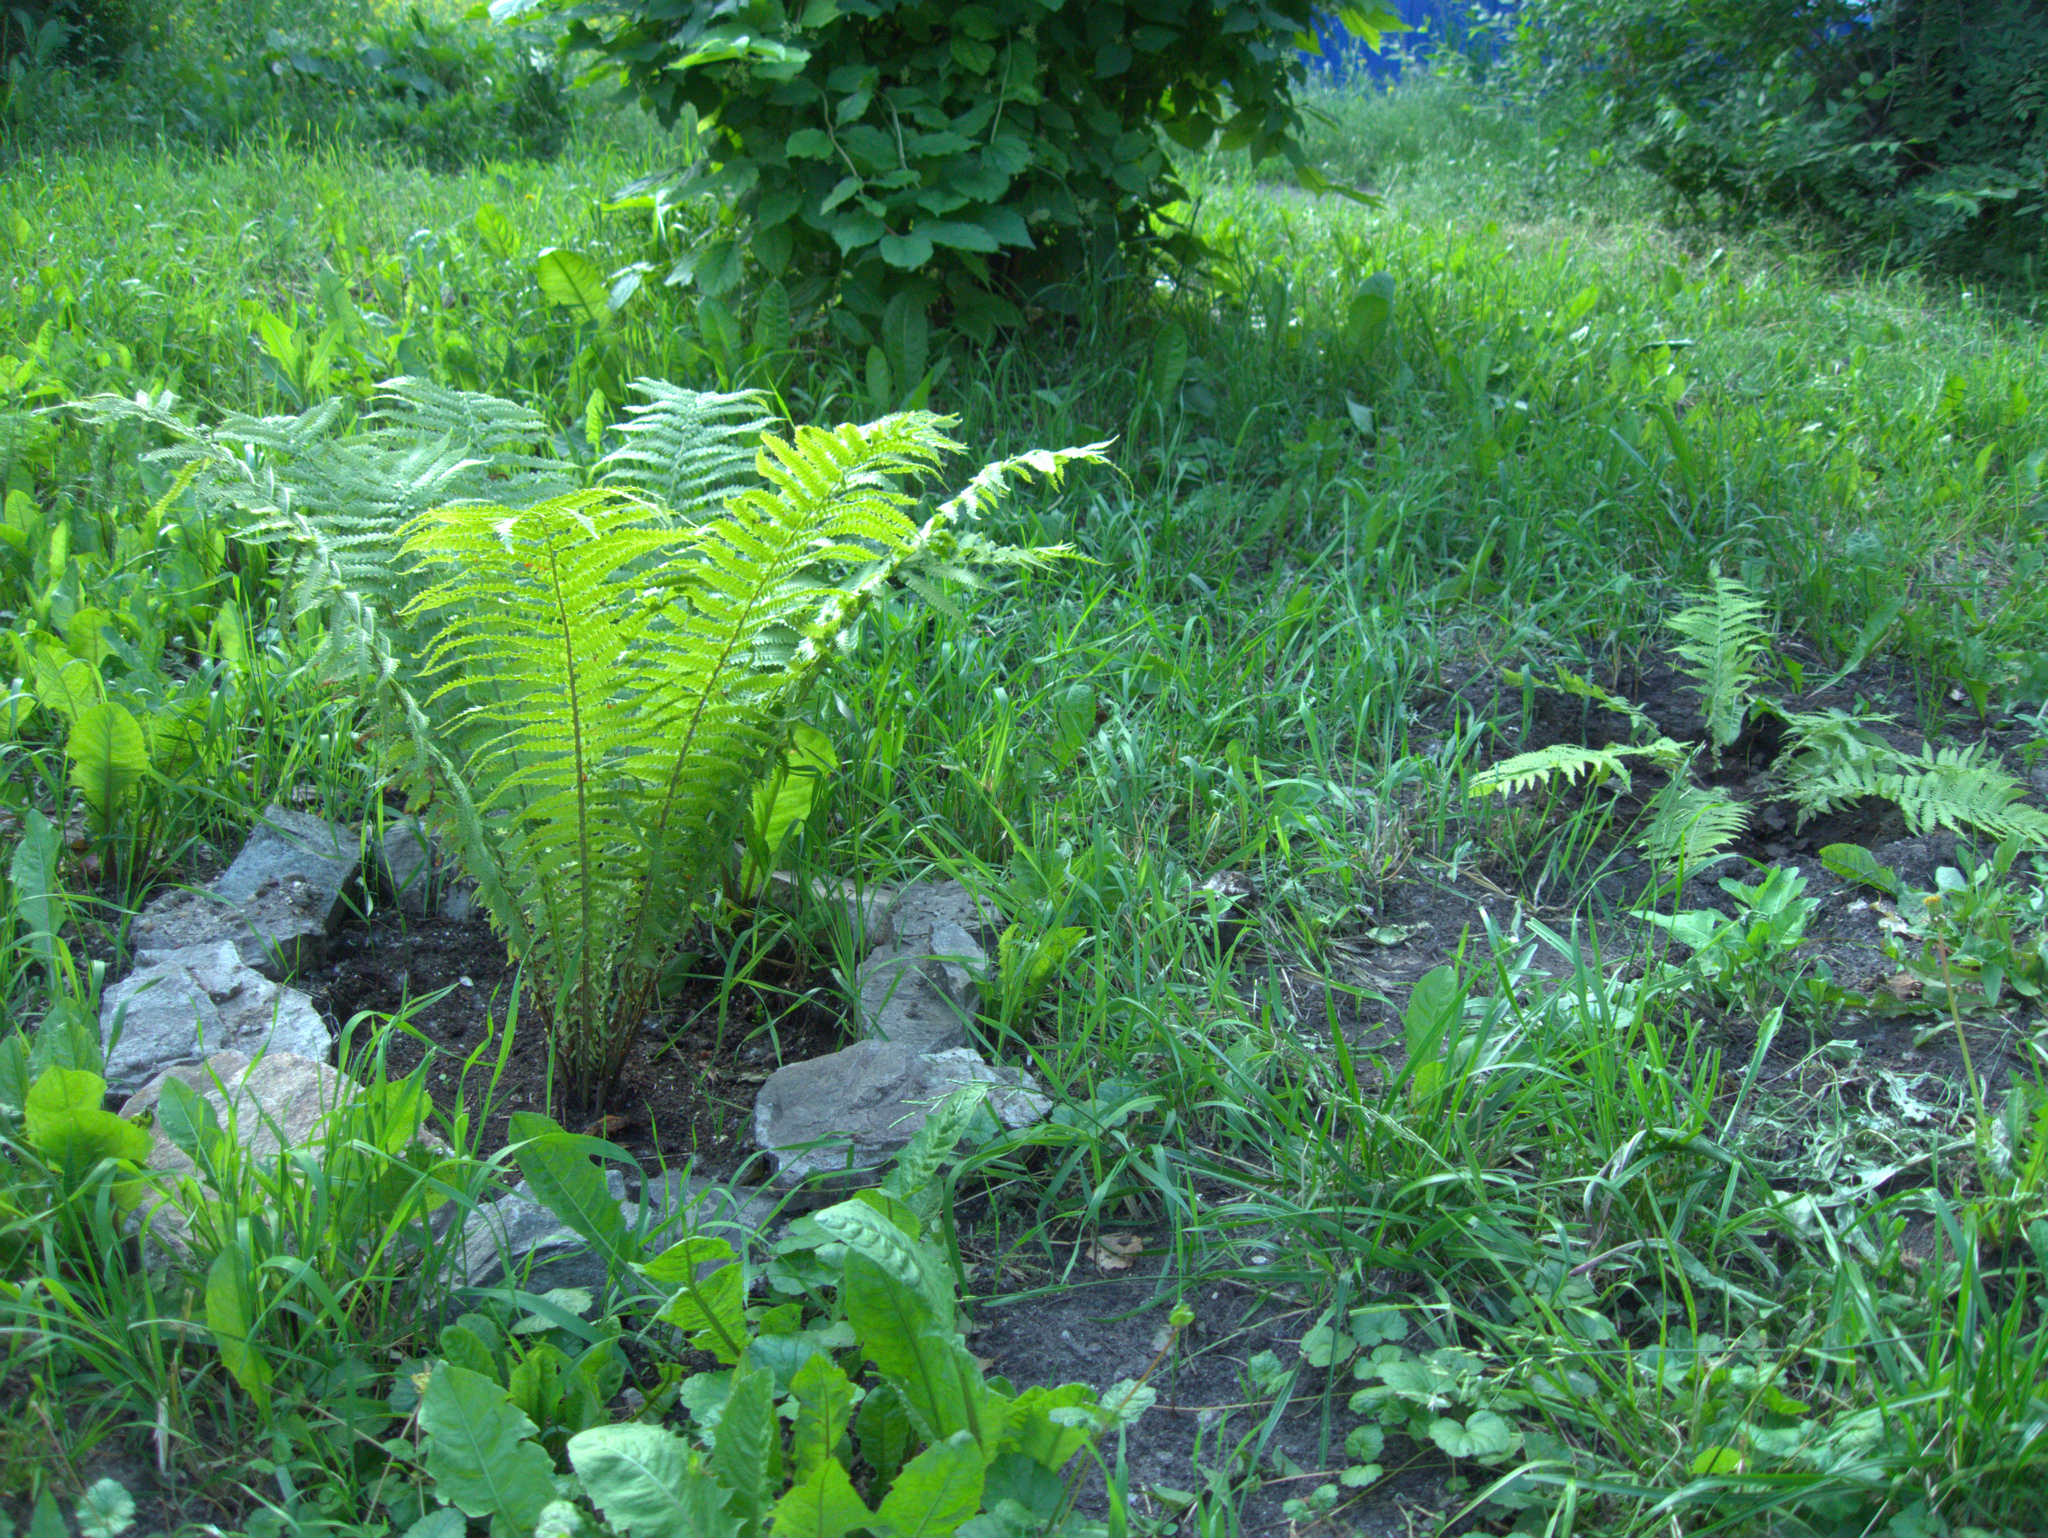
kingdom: Plantae
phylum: Tracheophyta
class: Magnoliopsida
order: Lamiales
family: Lamiaceae
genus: Glechoma
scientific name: Glechoma hederacea
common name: Ground ivy
